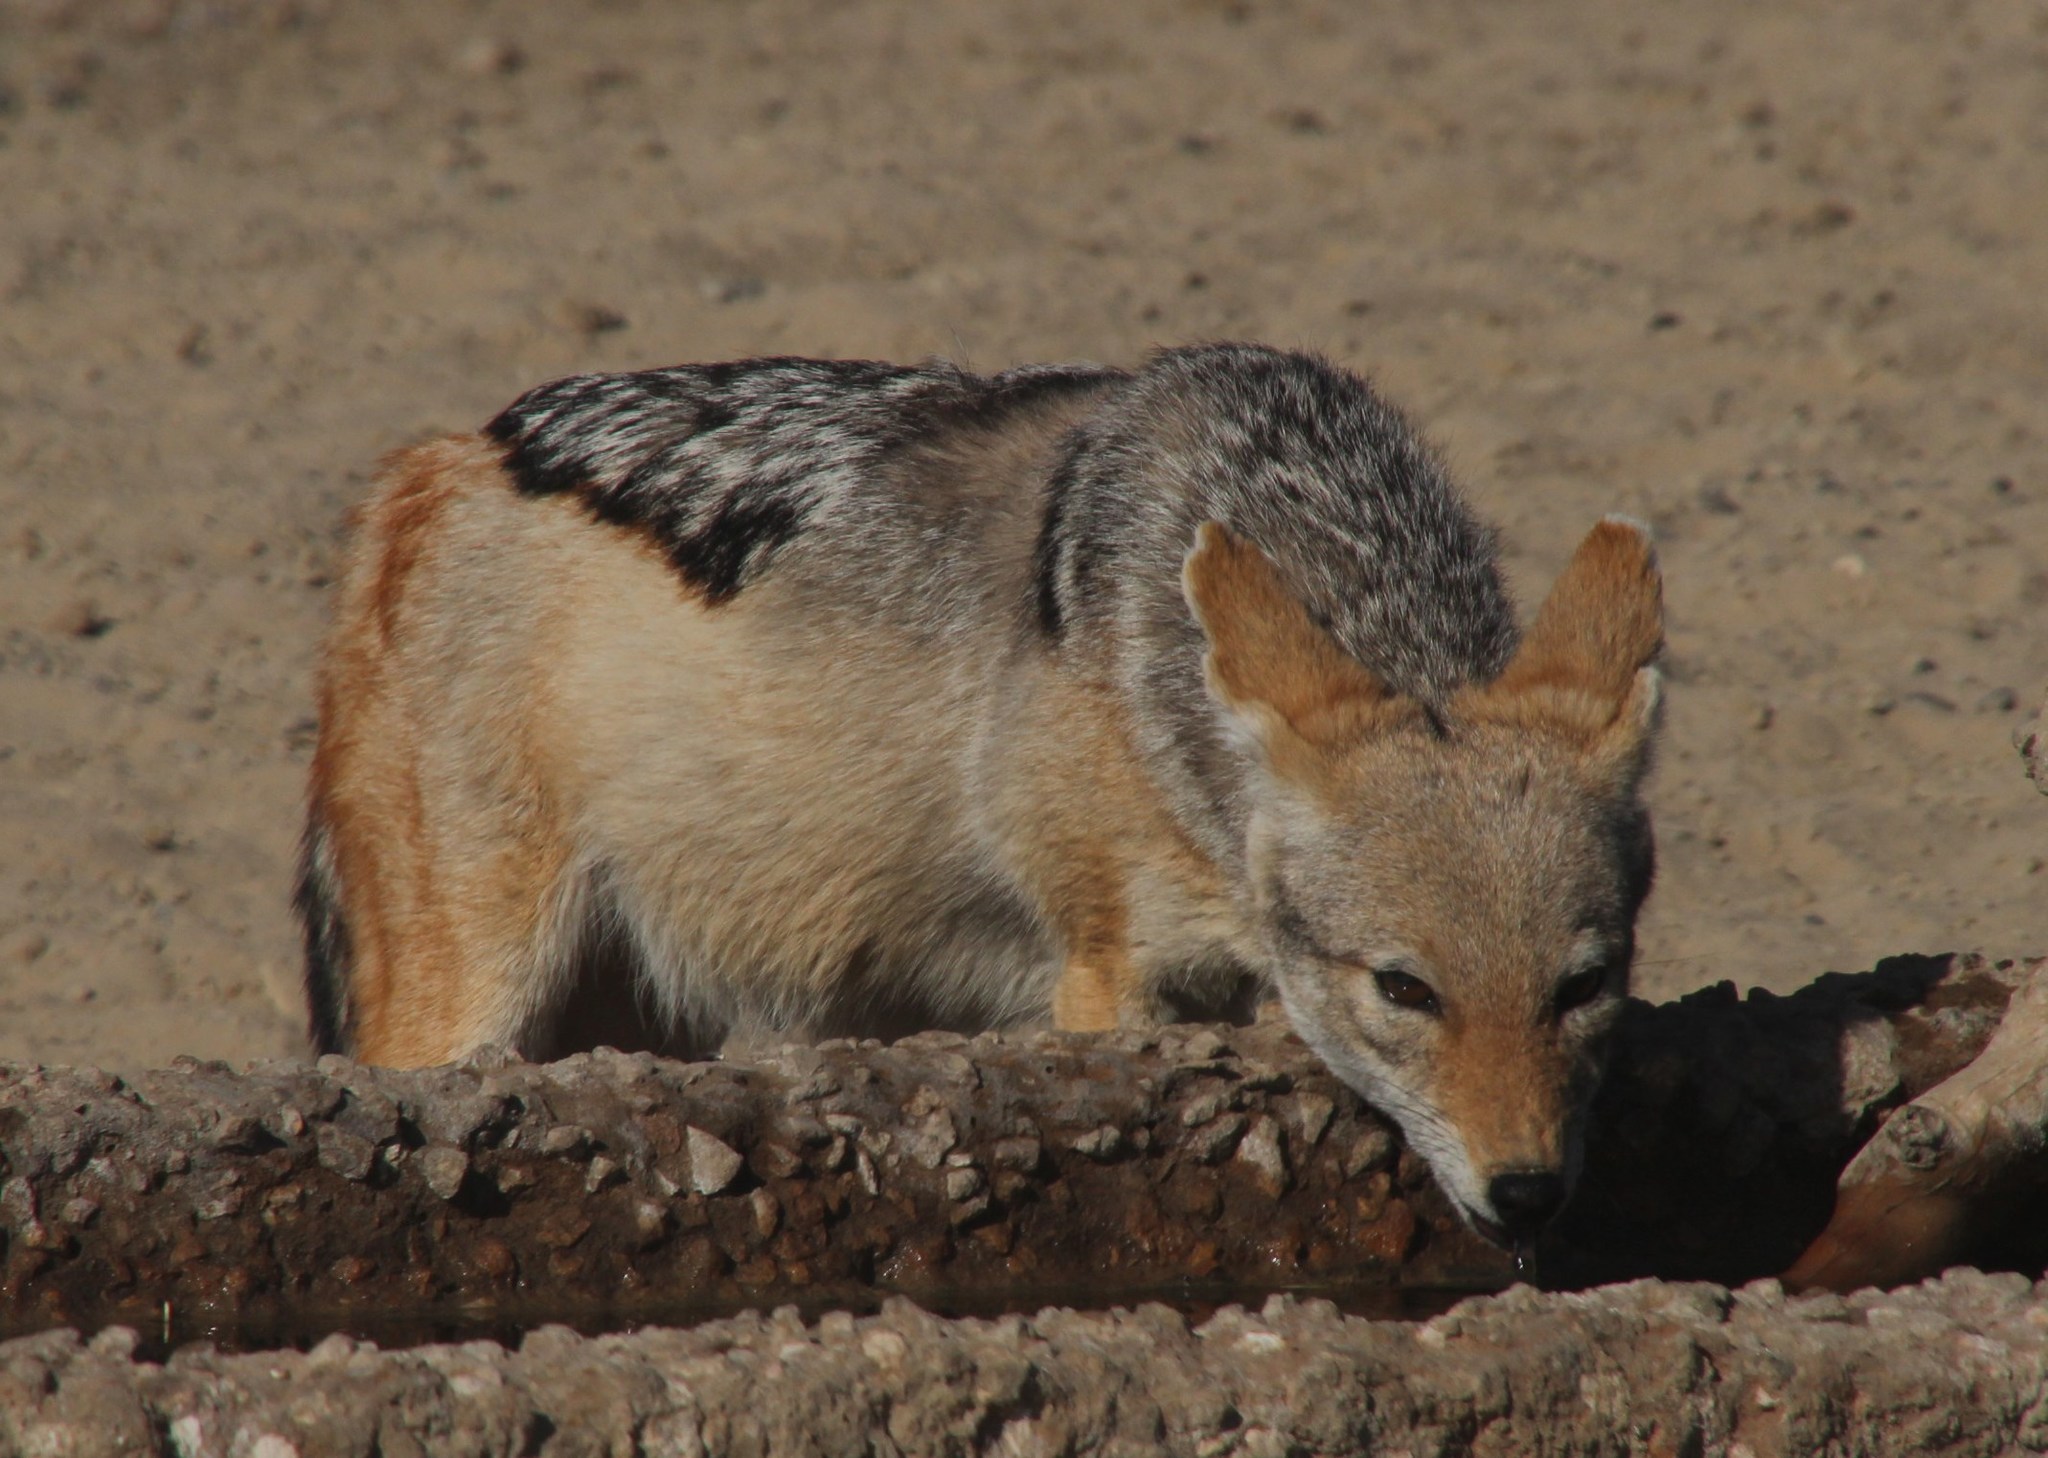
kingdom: Animalia
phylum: Chordata
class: Mammalia
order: Carnivora
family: Canidae
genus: Lupulella
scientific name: Lupulella
